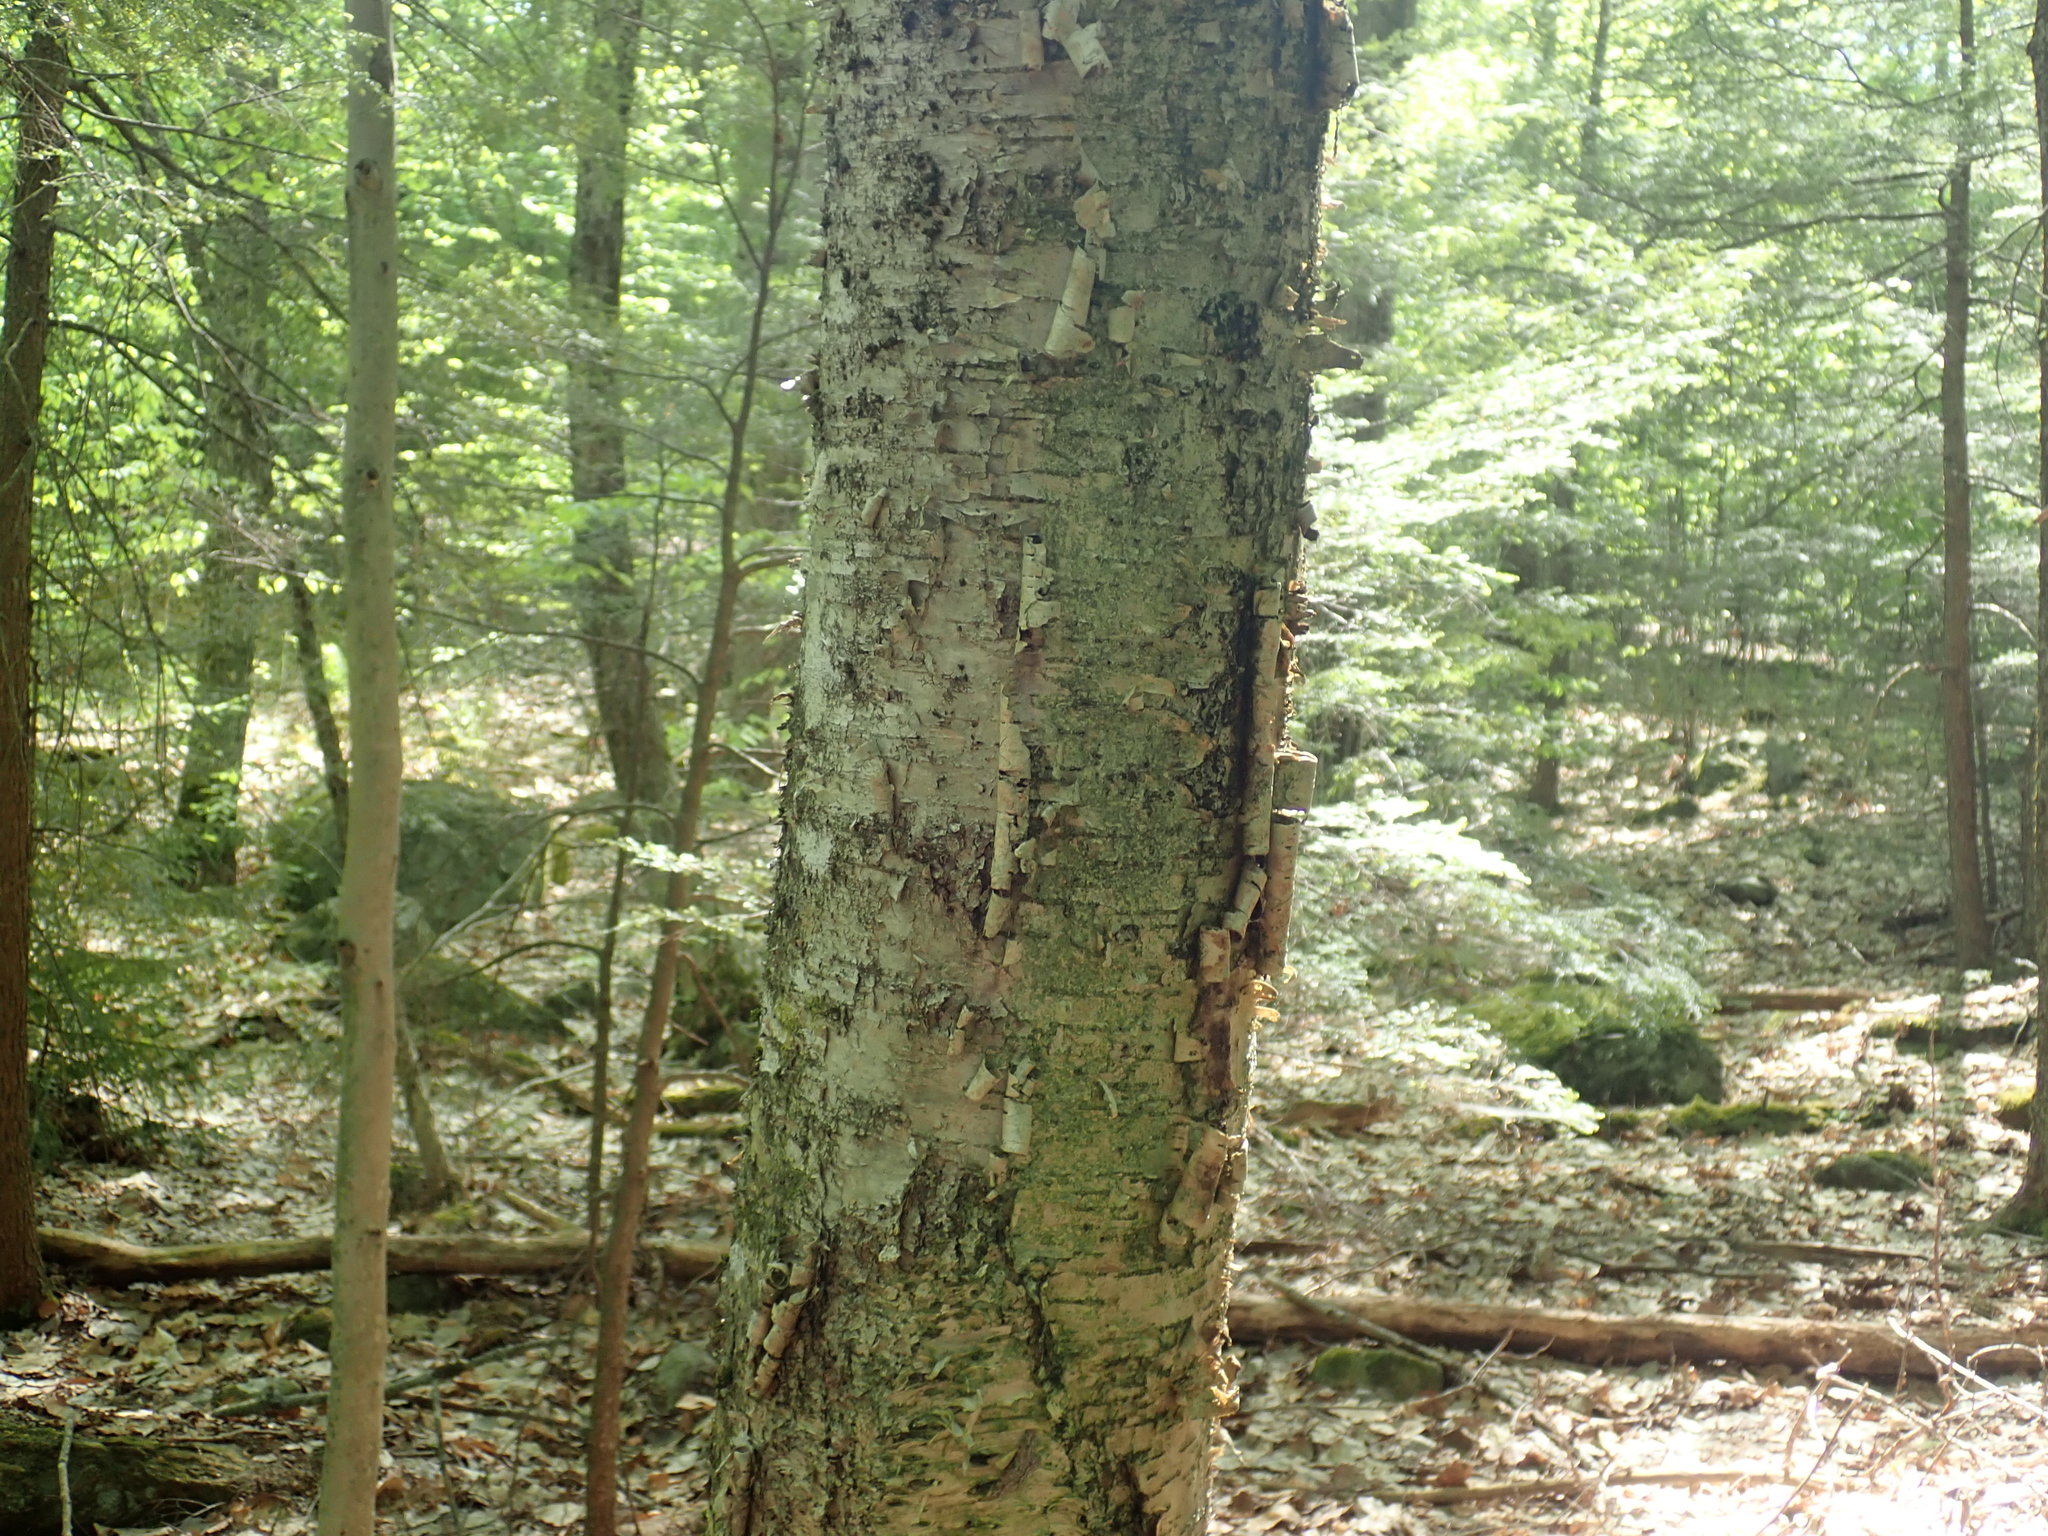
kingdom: Plantae
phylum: Tracheophyta
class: Magnoliopsida
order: Fagales
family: Betulaceae
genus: Betula
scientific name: Betula alleghaniensis
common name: Yellow birch
